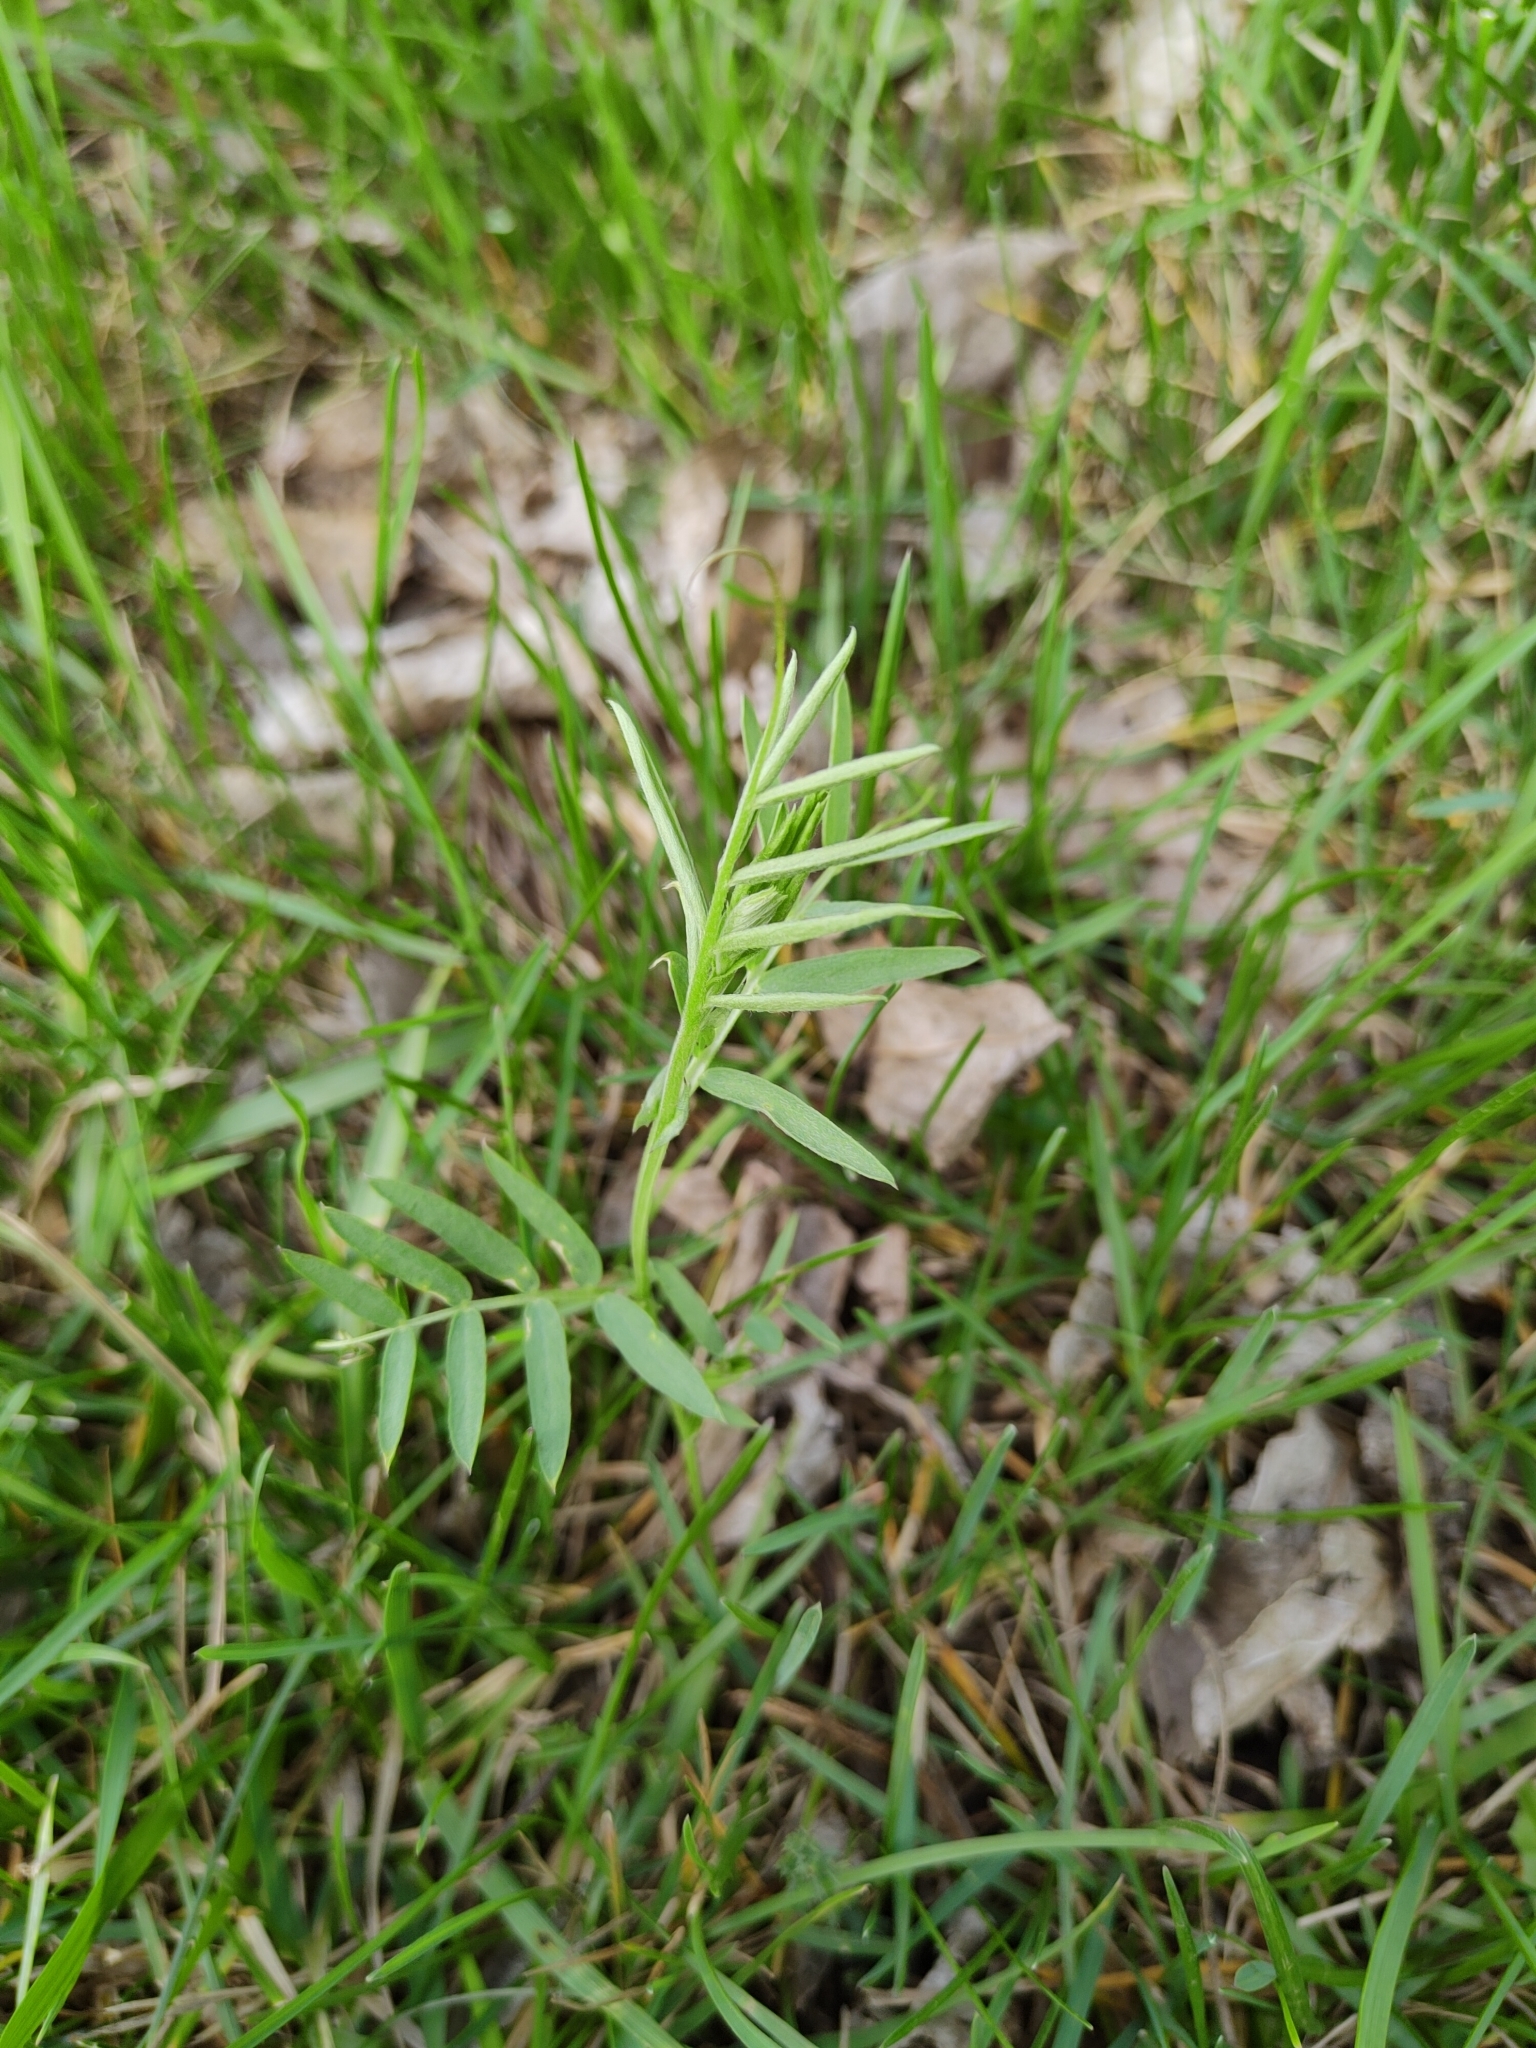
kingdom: Plantae
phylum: Tracheophyta
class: Magnoliopsida
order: Fabales
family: Fabaceae
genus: Vicia
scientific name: Vicia cracca
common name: Bird vetch
